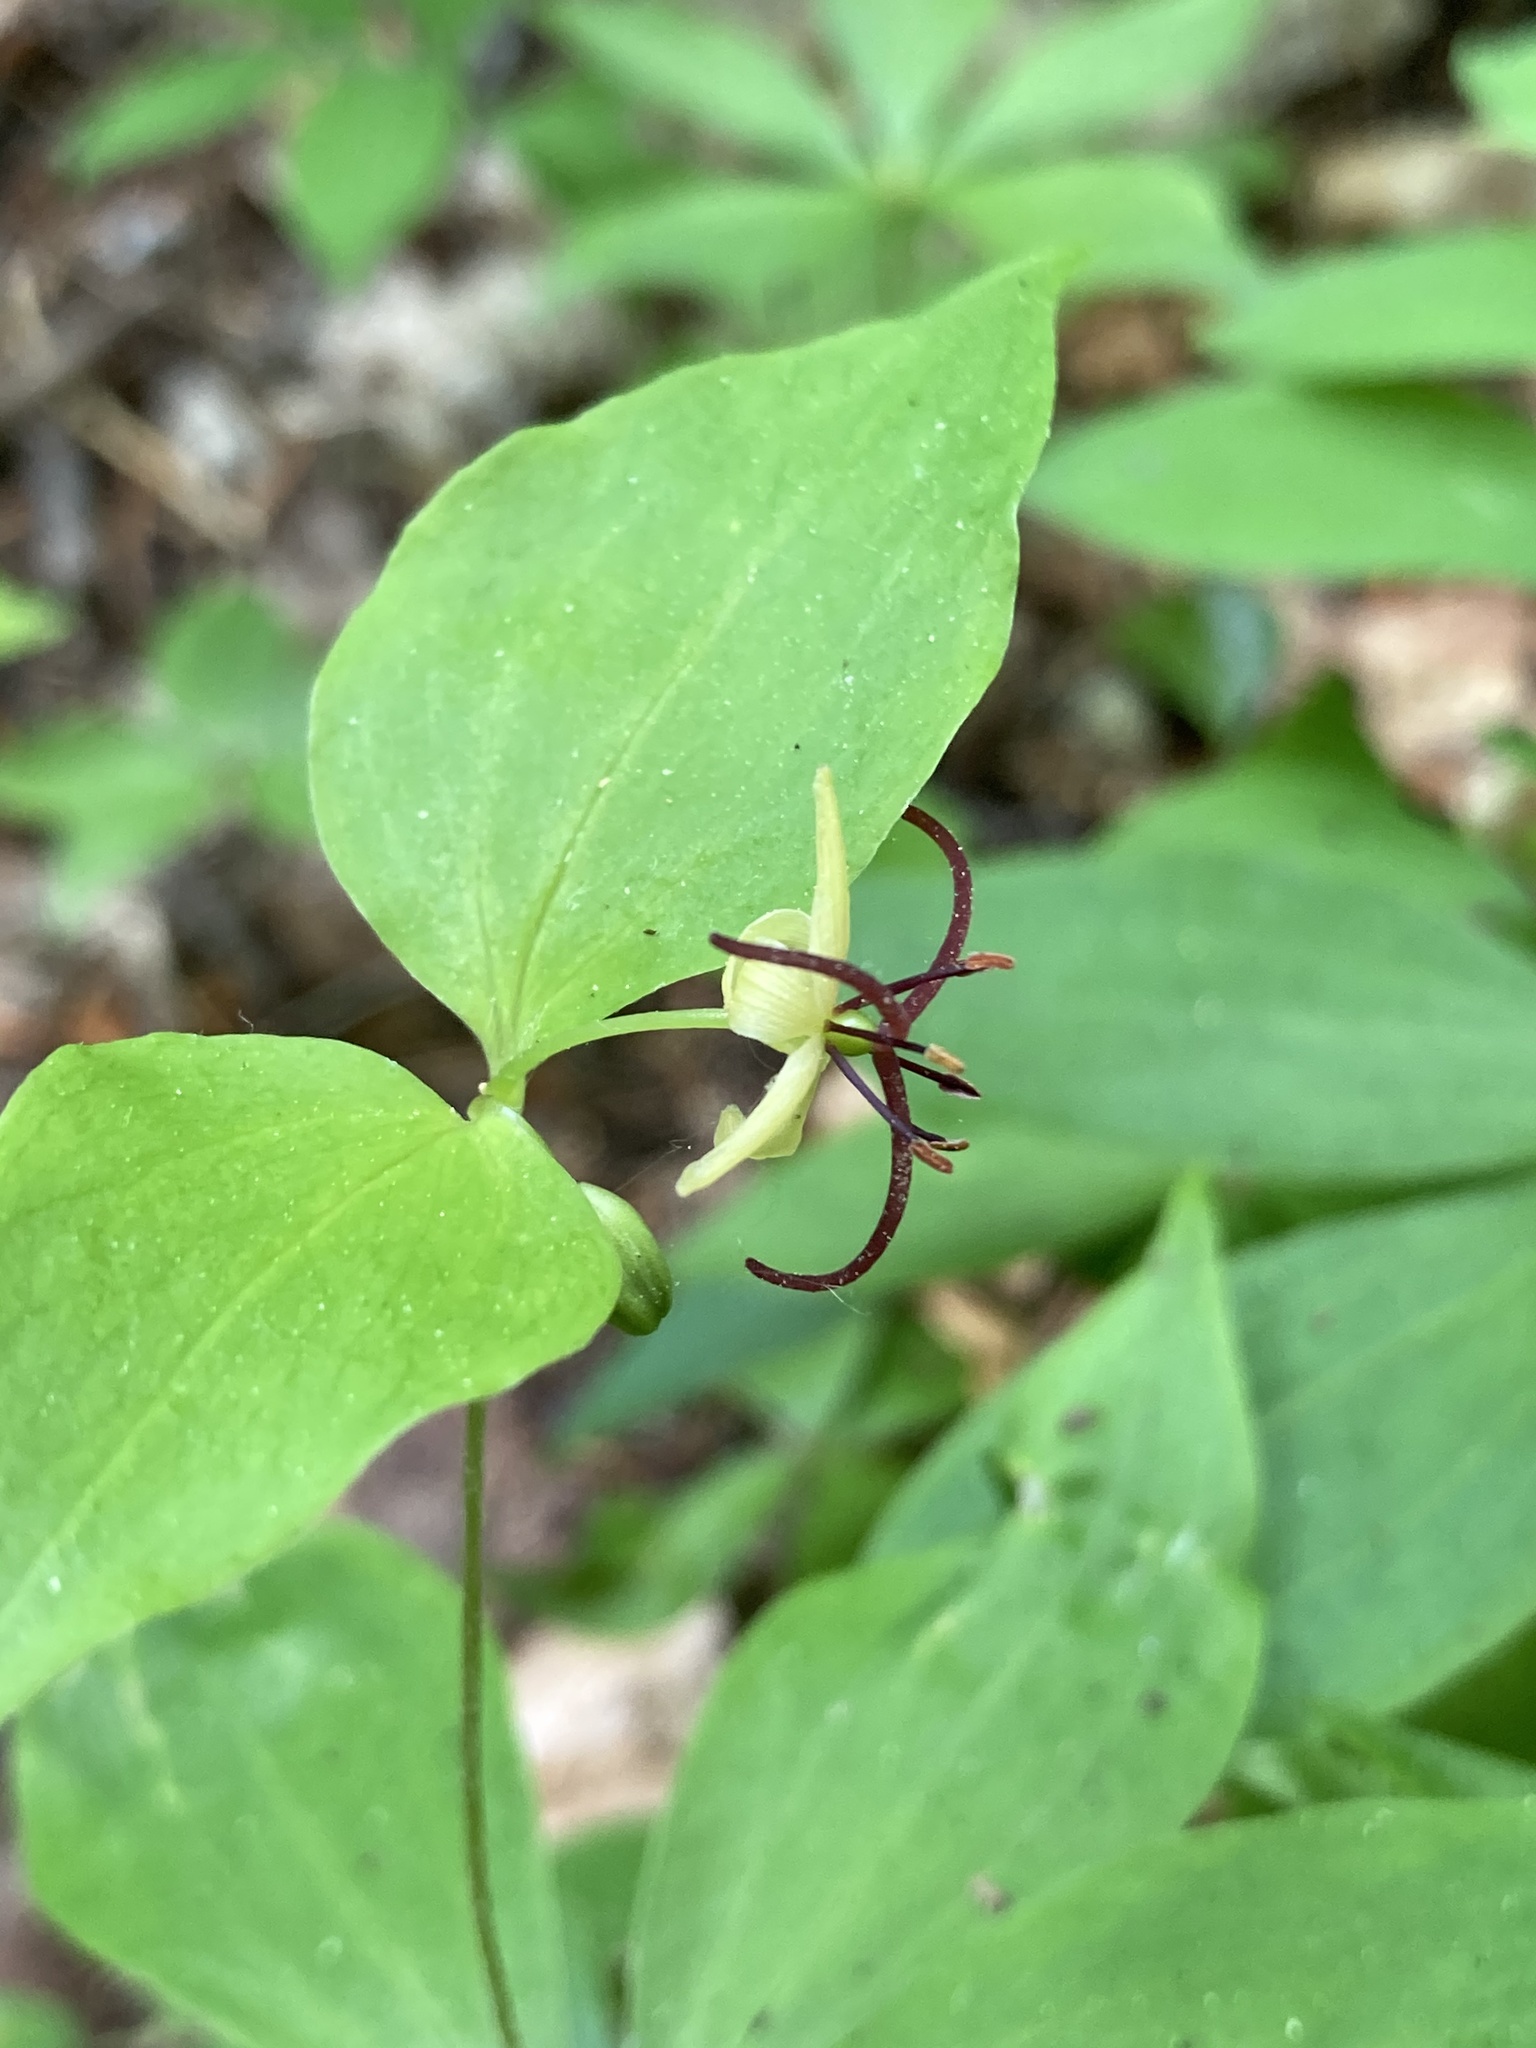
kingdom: Plantae
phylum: Tracheophyta
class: Liliopsida
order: Liliales
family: Liliaceae
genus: Medeola
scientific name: Medeola virginiana
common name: Indian cucumber-root
